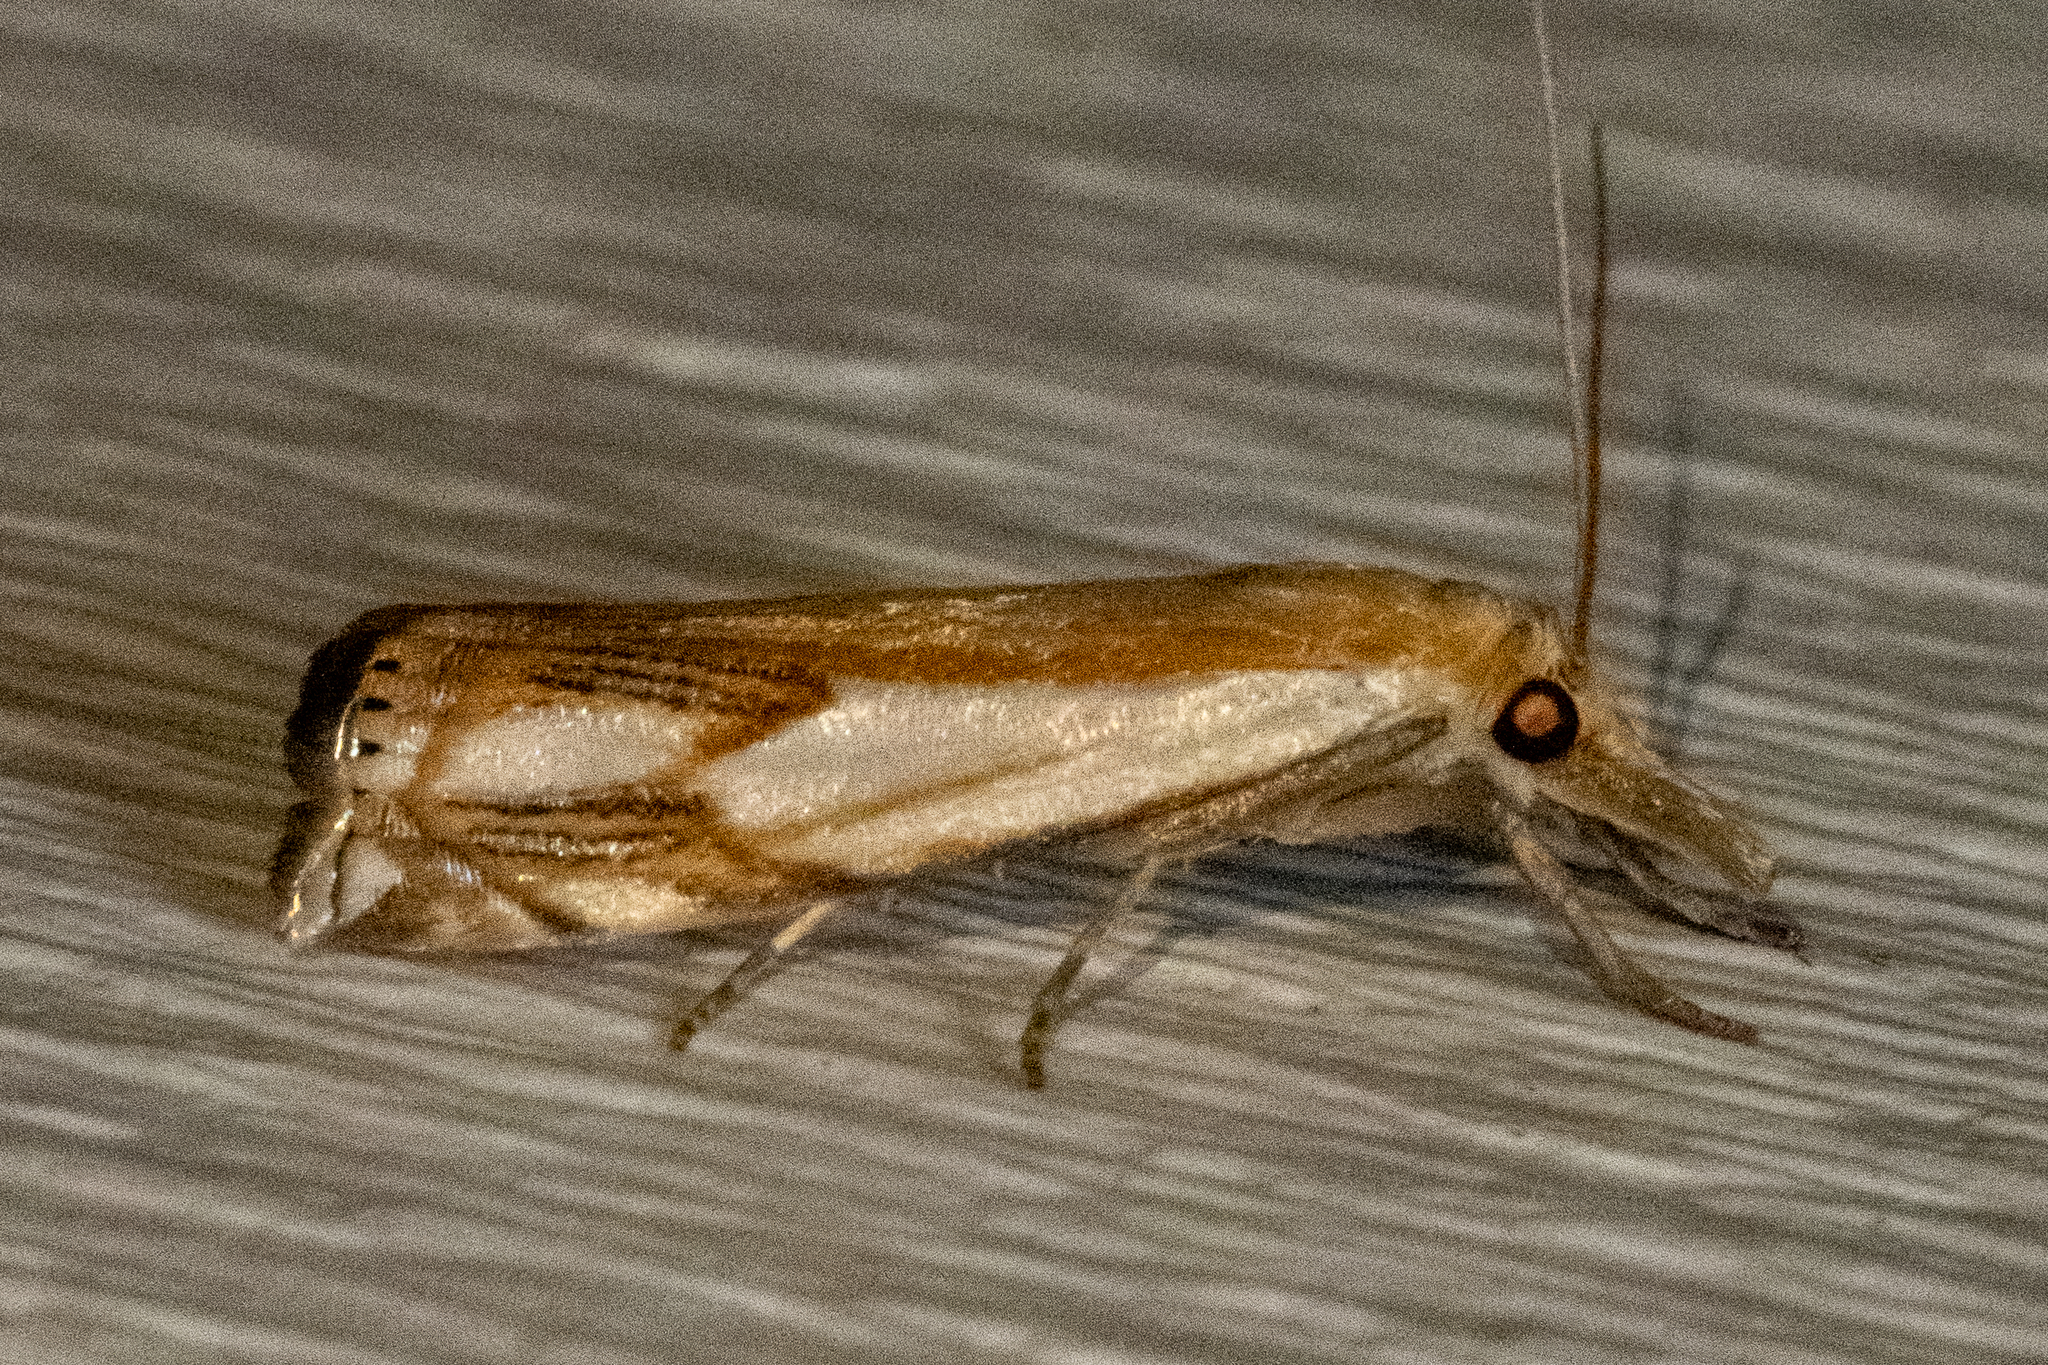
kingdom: Animalia
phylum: Arthropoda
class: Insecta
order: Lepidoptera
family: Crambidae
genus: Crambus
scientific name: Crambus agitatellus
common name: Double-banded grass-veneer
